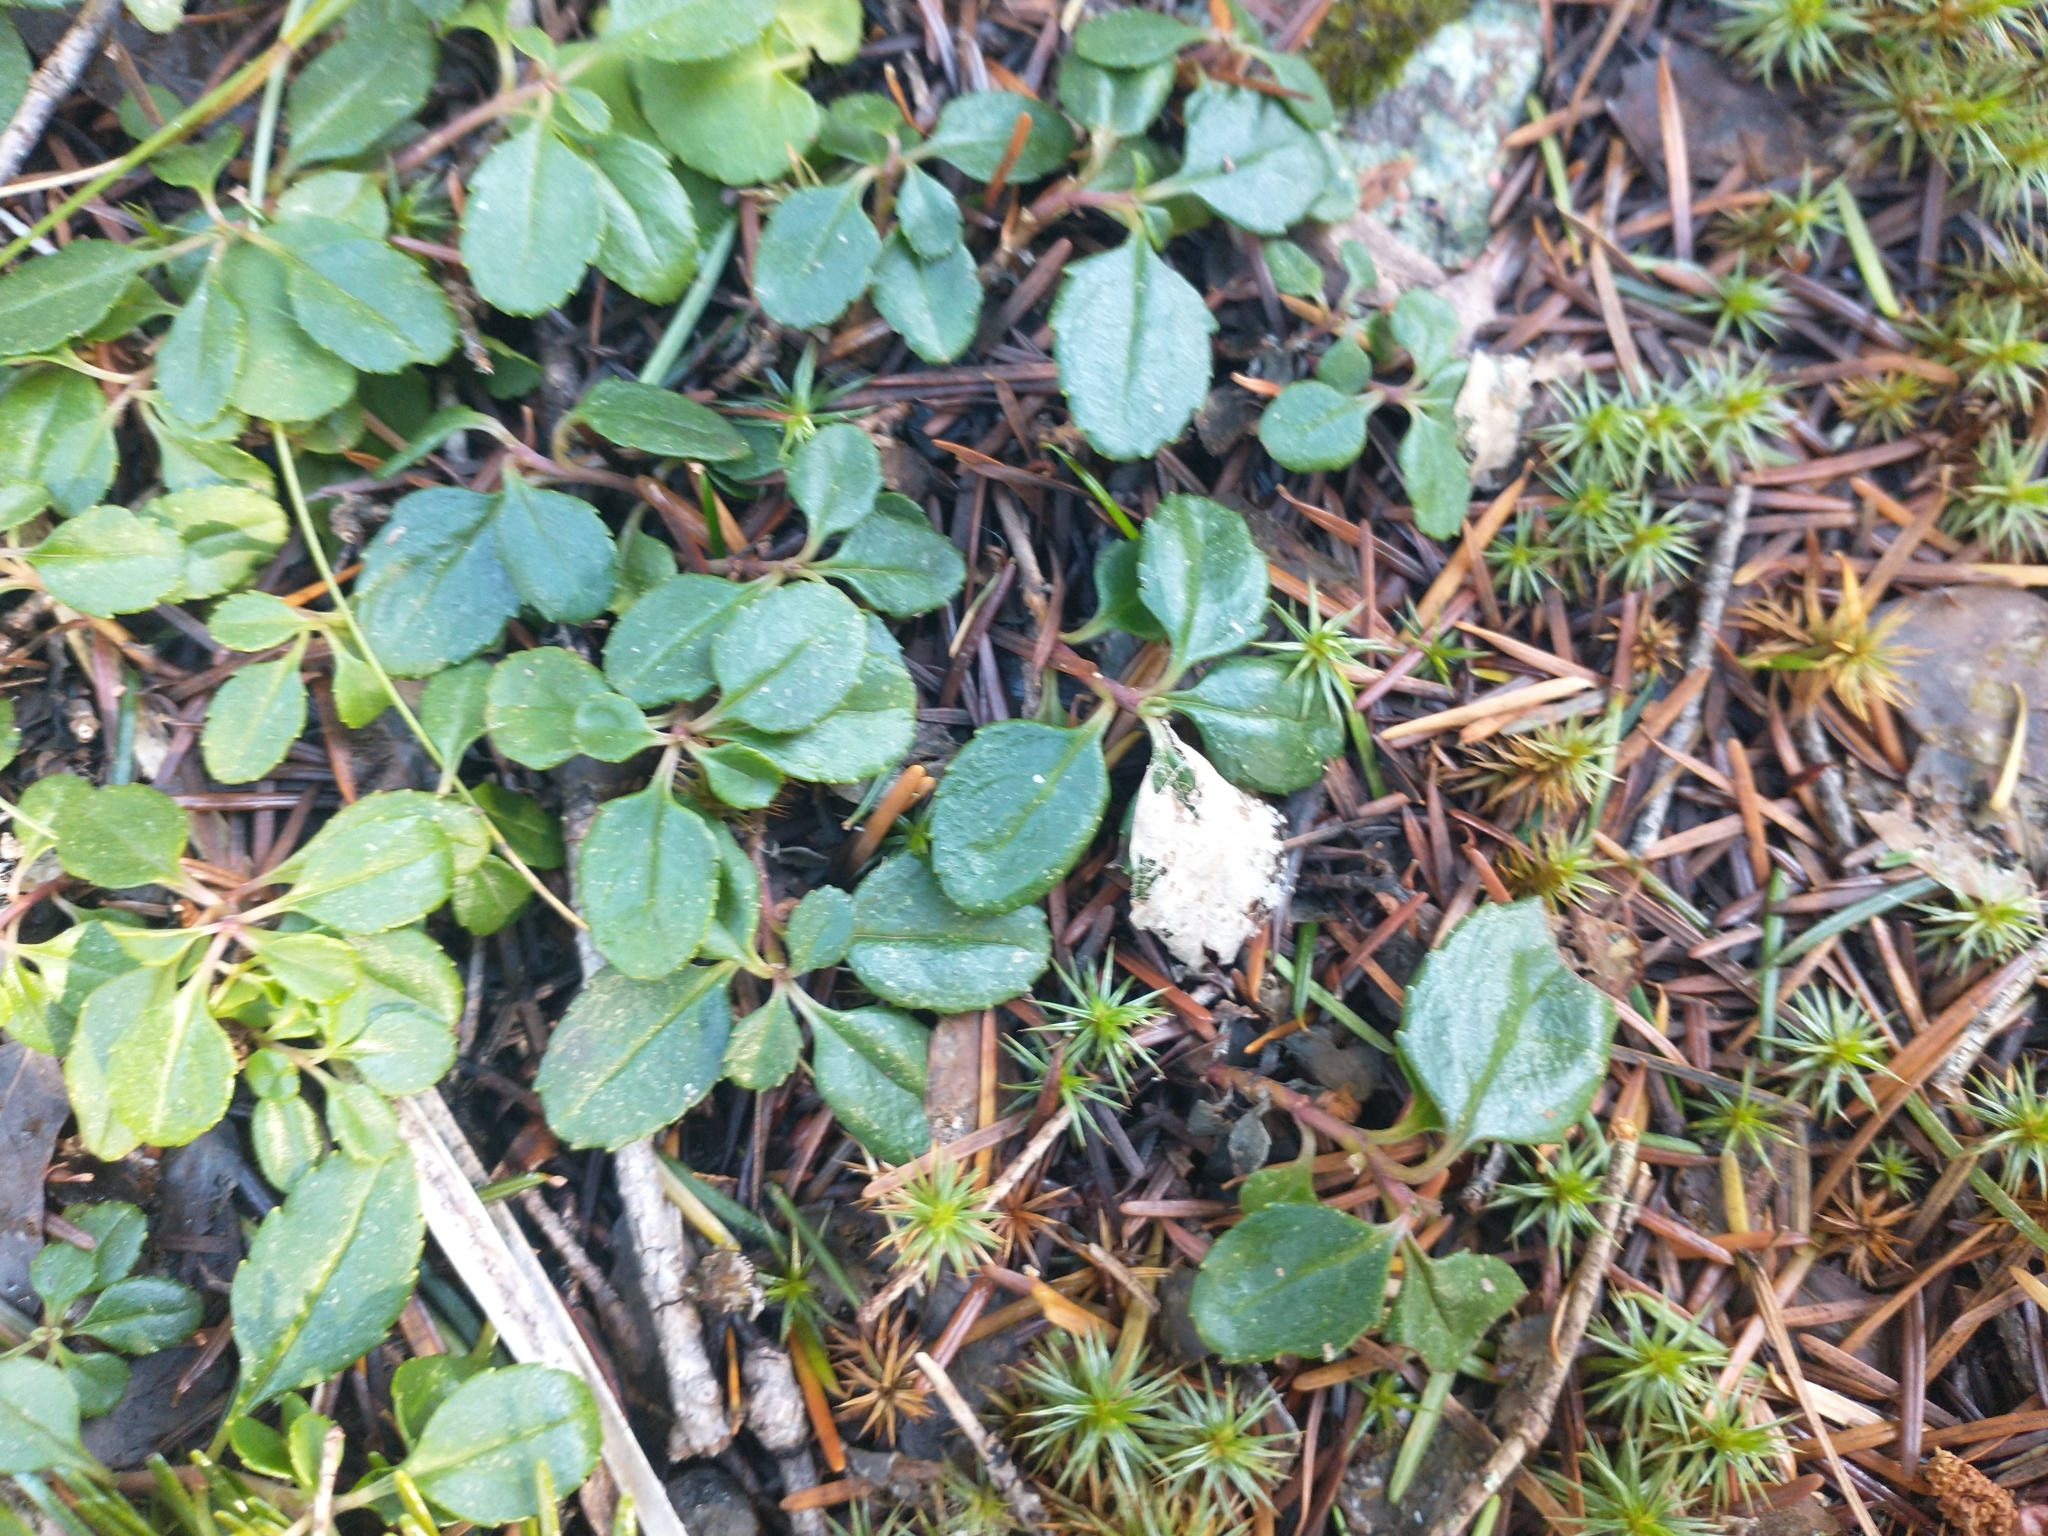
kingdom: Plantae
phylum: Tracheophyta
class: Magnoliopsida
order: Dipsacales
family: Caprifoliaceae
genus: Linnaea
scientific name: Linnaea borealis
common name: Twinflower
